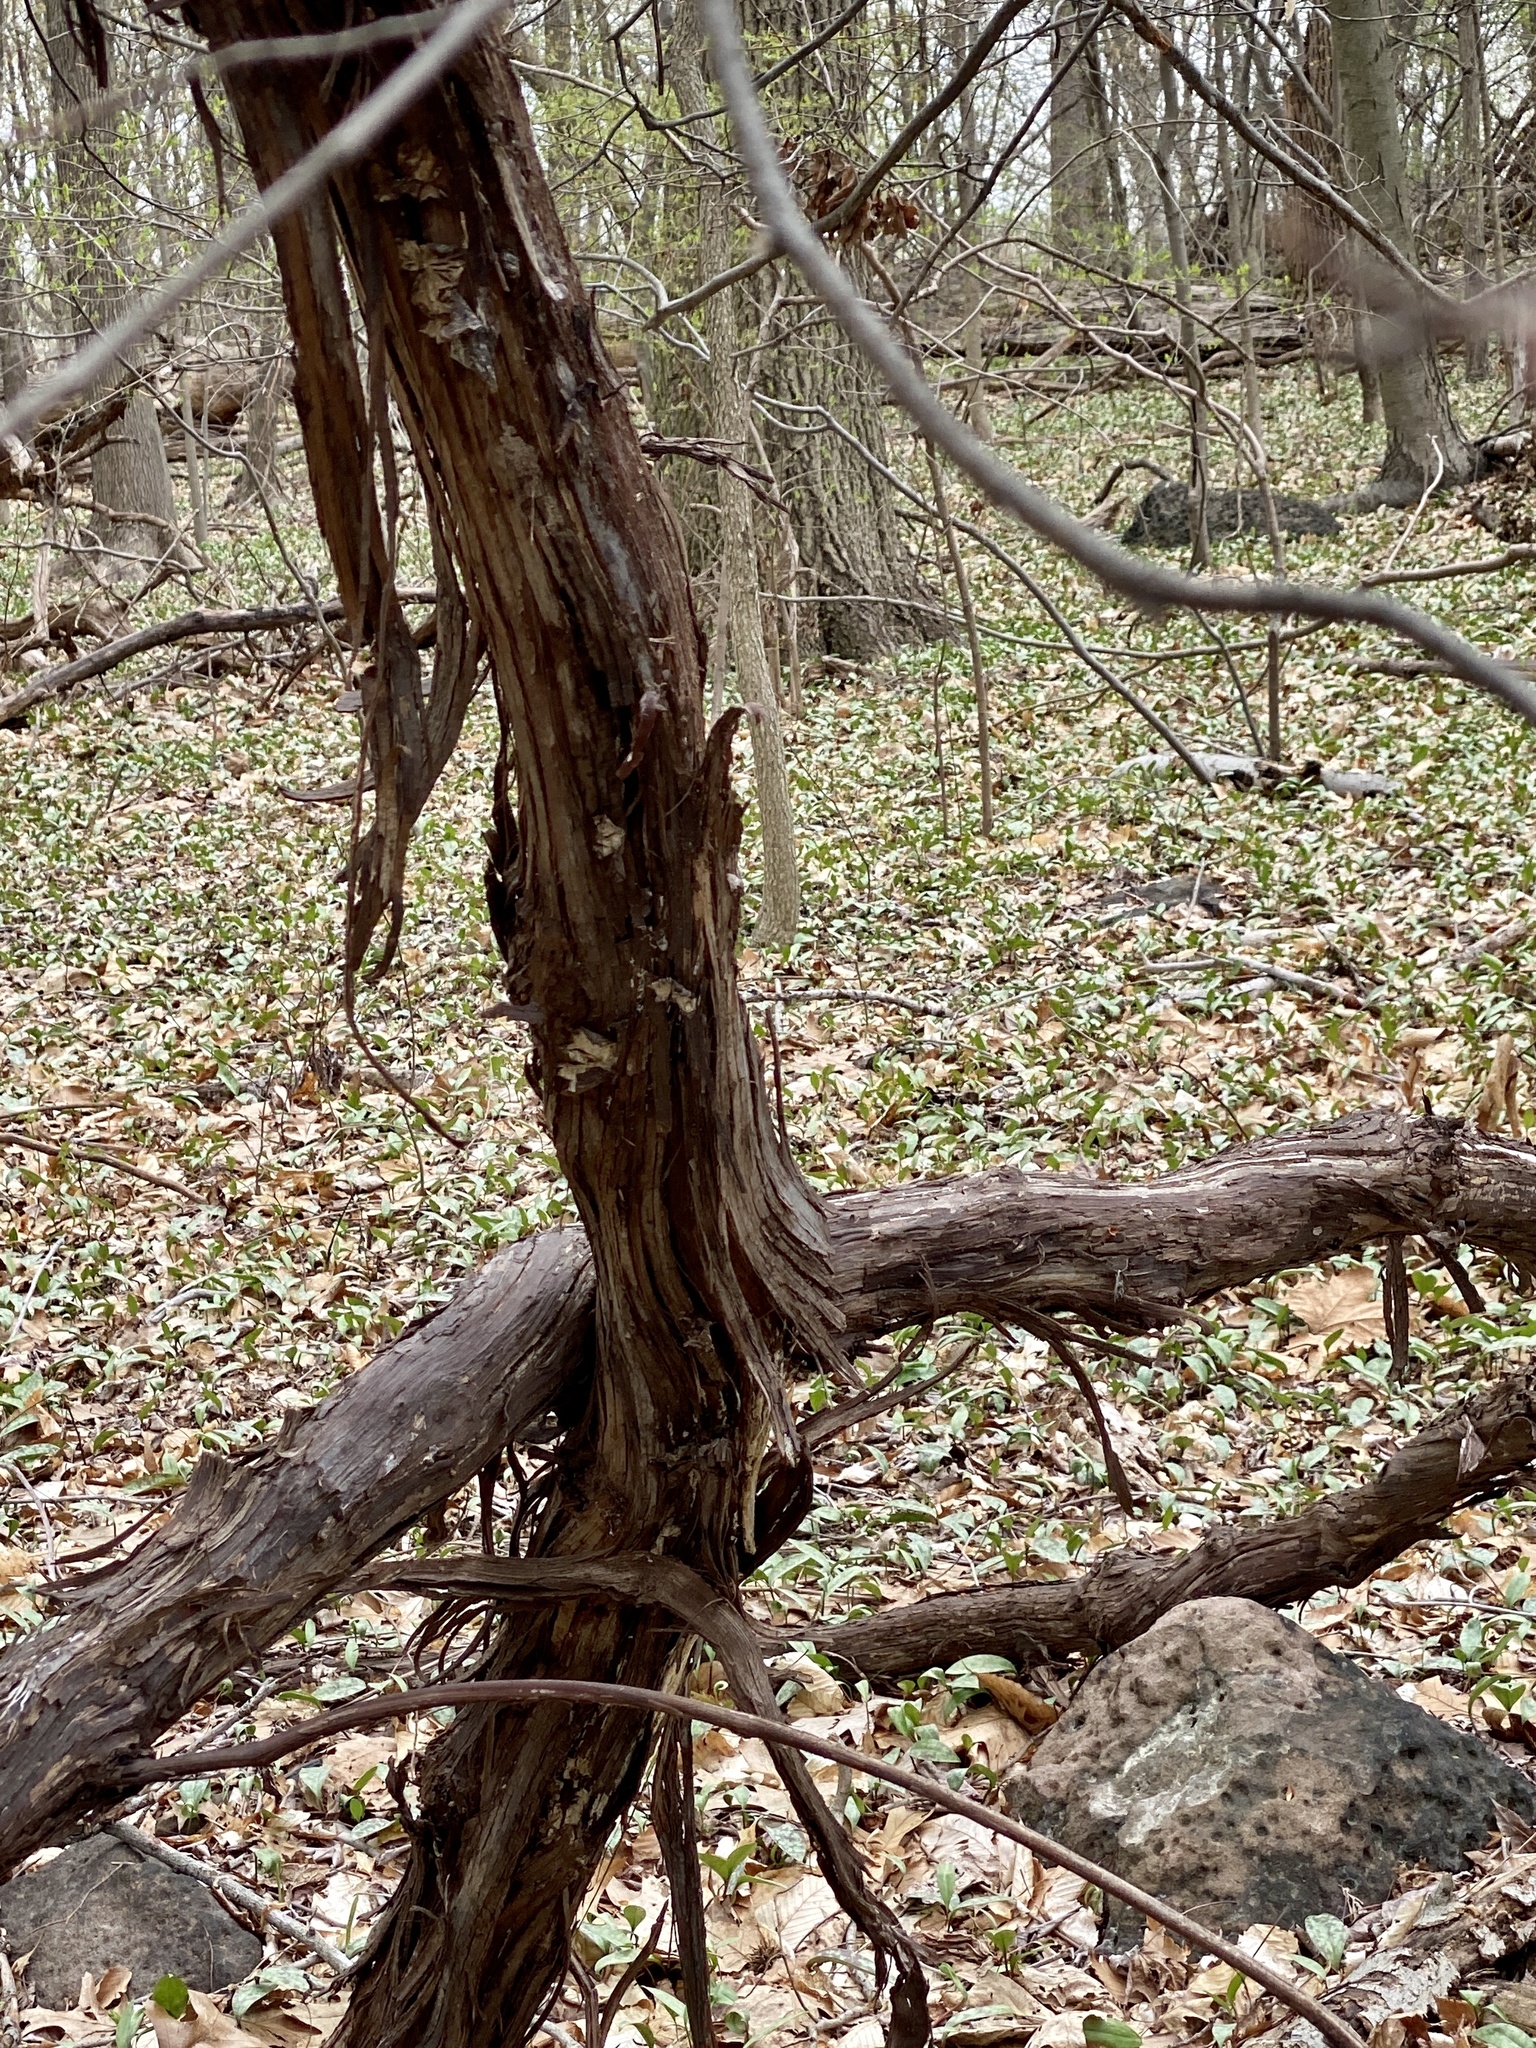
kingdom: Plantae
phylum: Tracheophyta
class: Magnoliopsida
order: Vitales
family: Vitaceae
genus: Vitis
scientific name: Vitis
